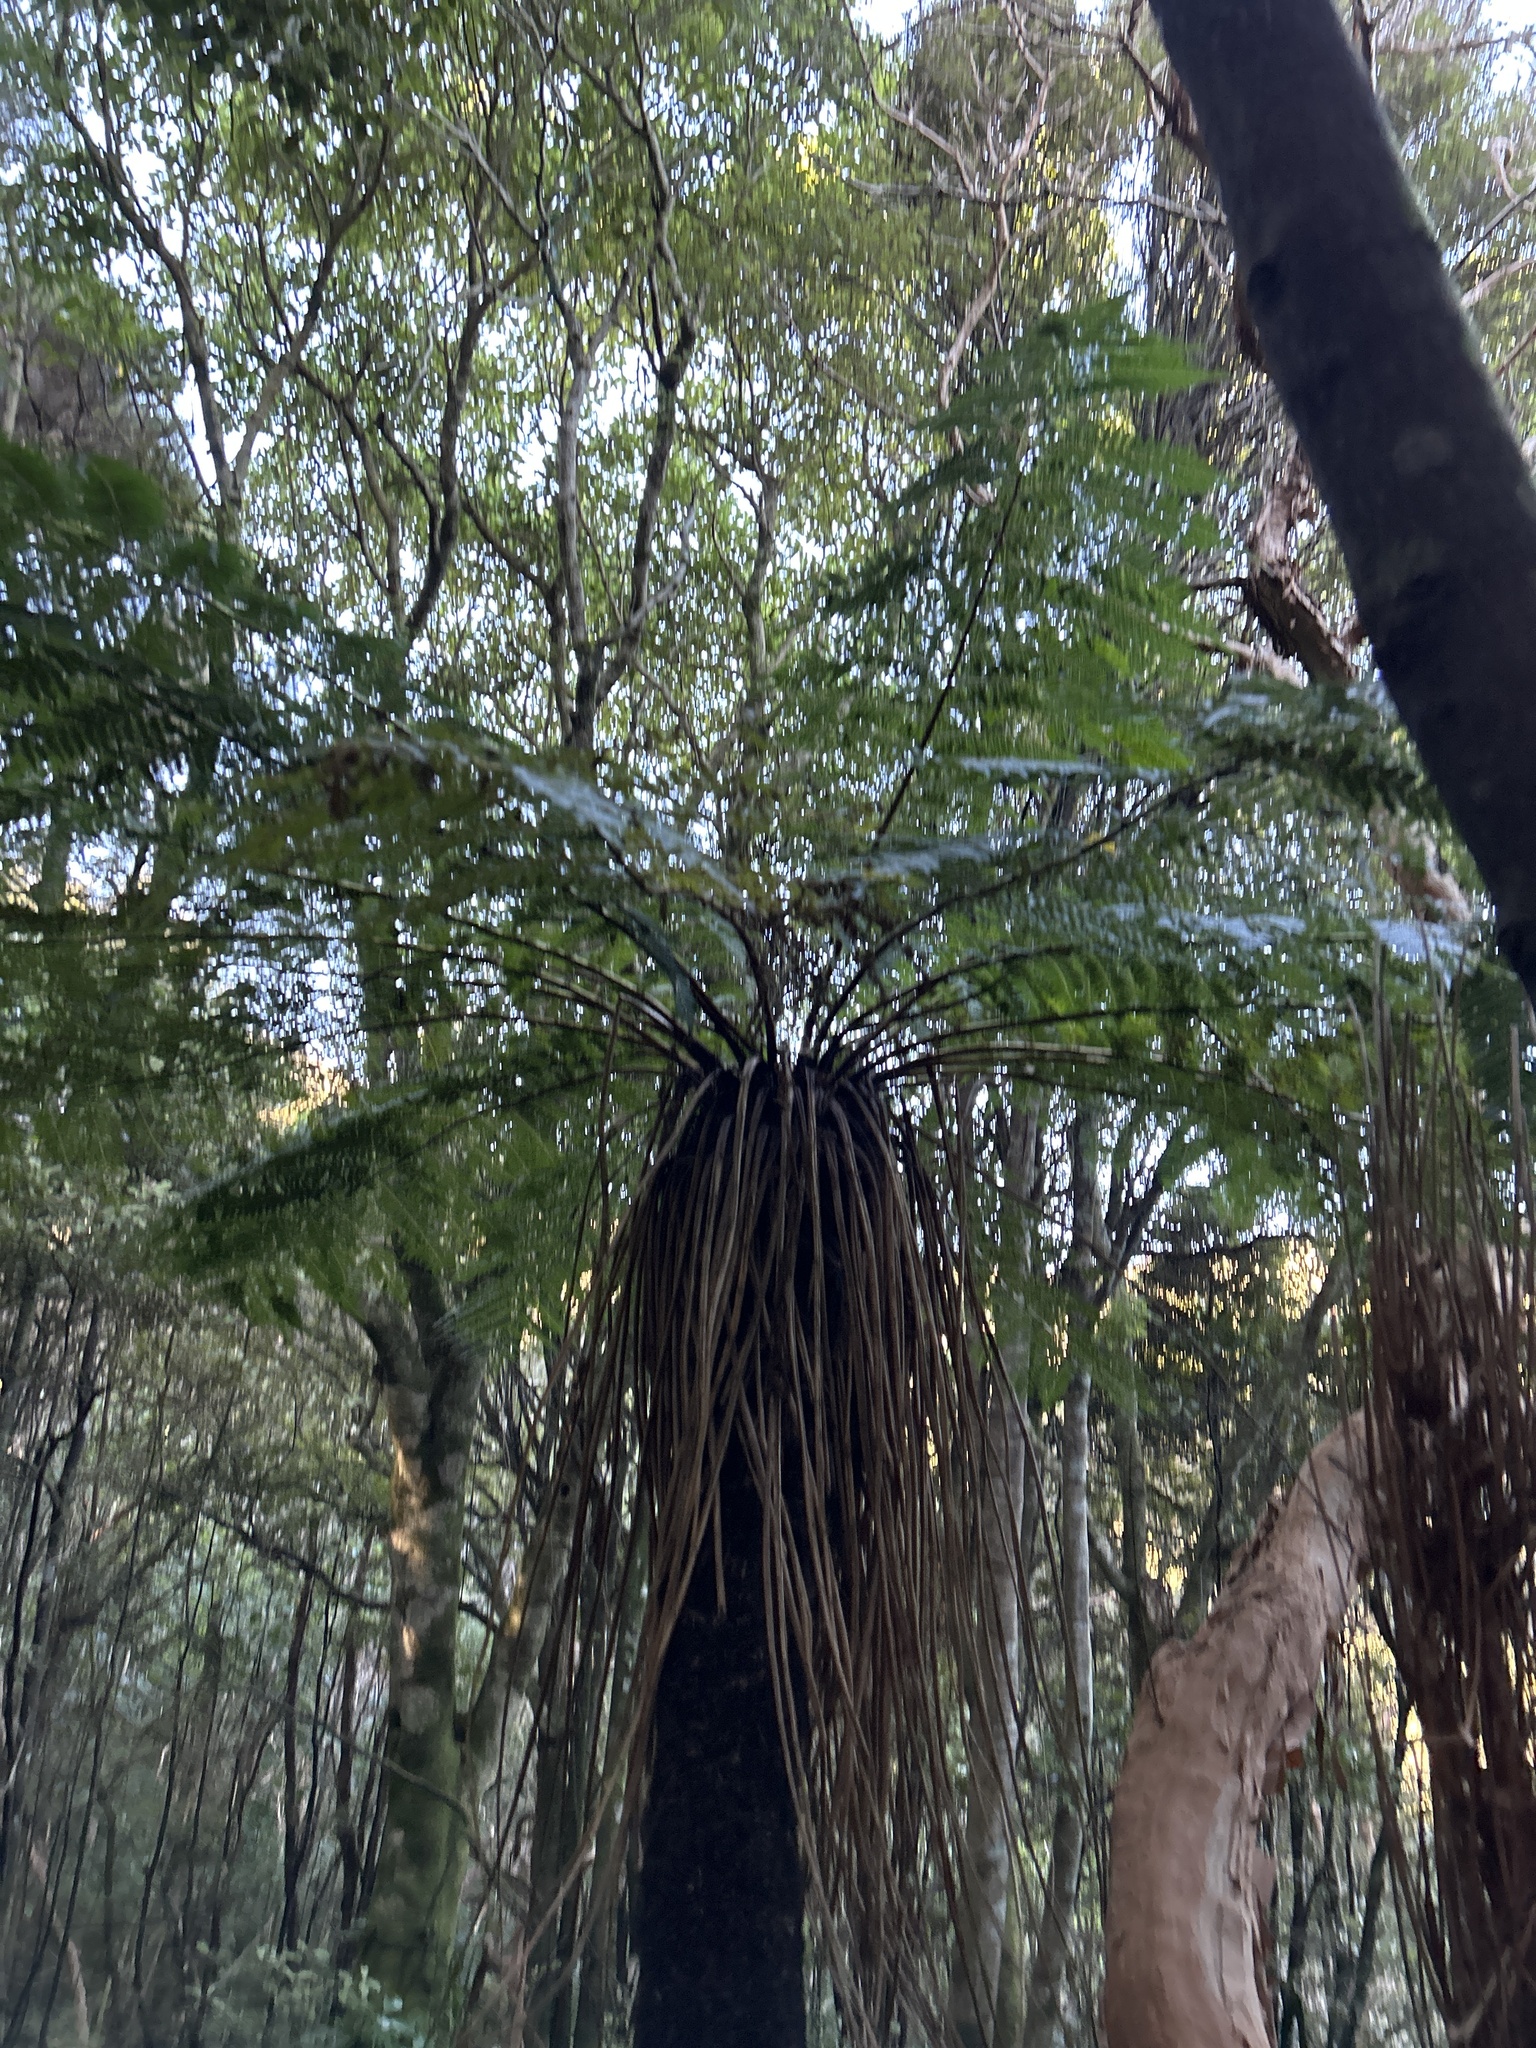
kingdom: Plantae
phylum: Tracheophyta
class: Polypodiopsida
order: Cyatheales
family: Cyatheaceae
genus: Alsophila
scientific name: Alsophila smithii
